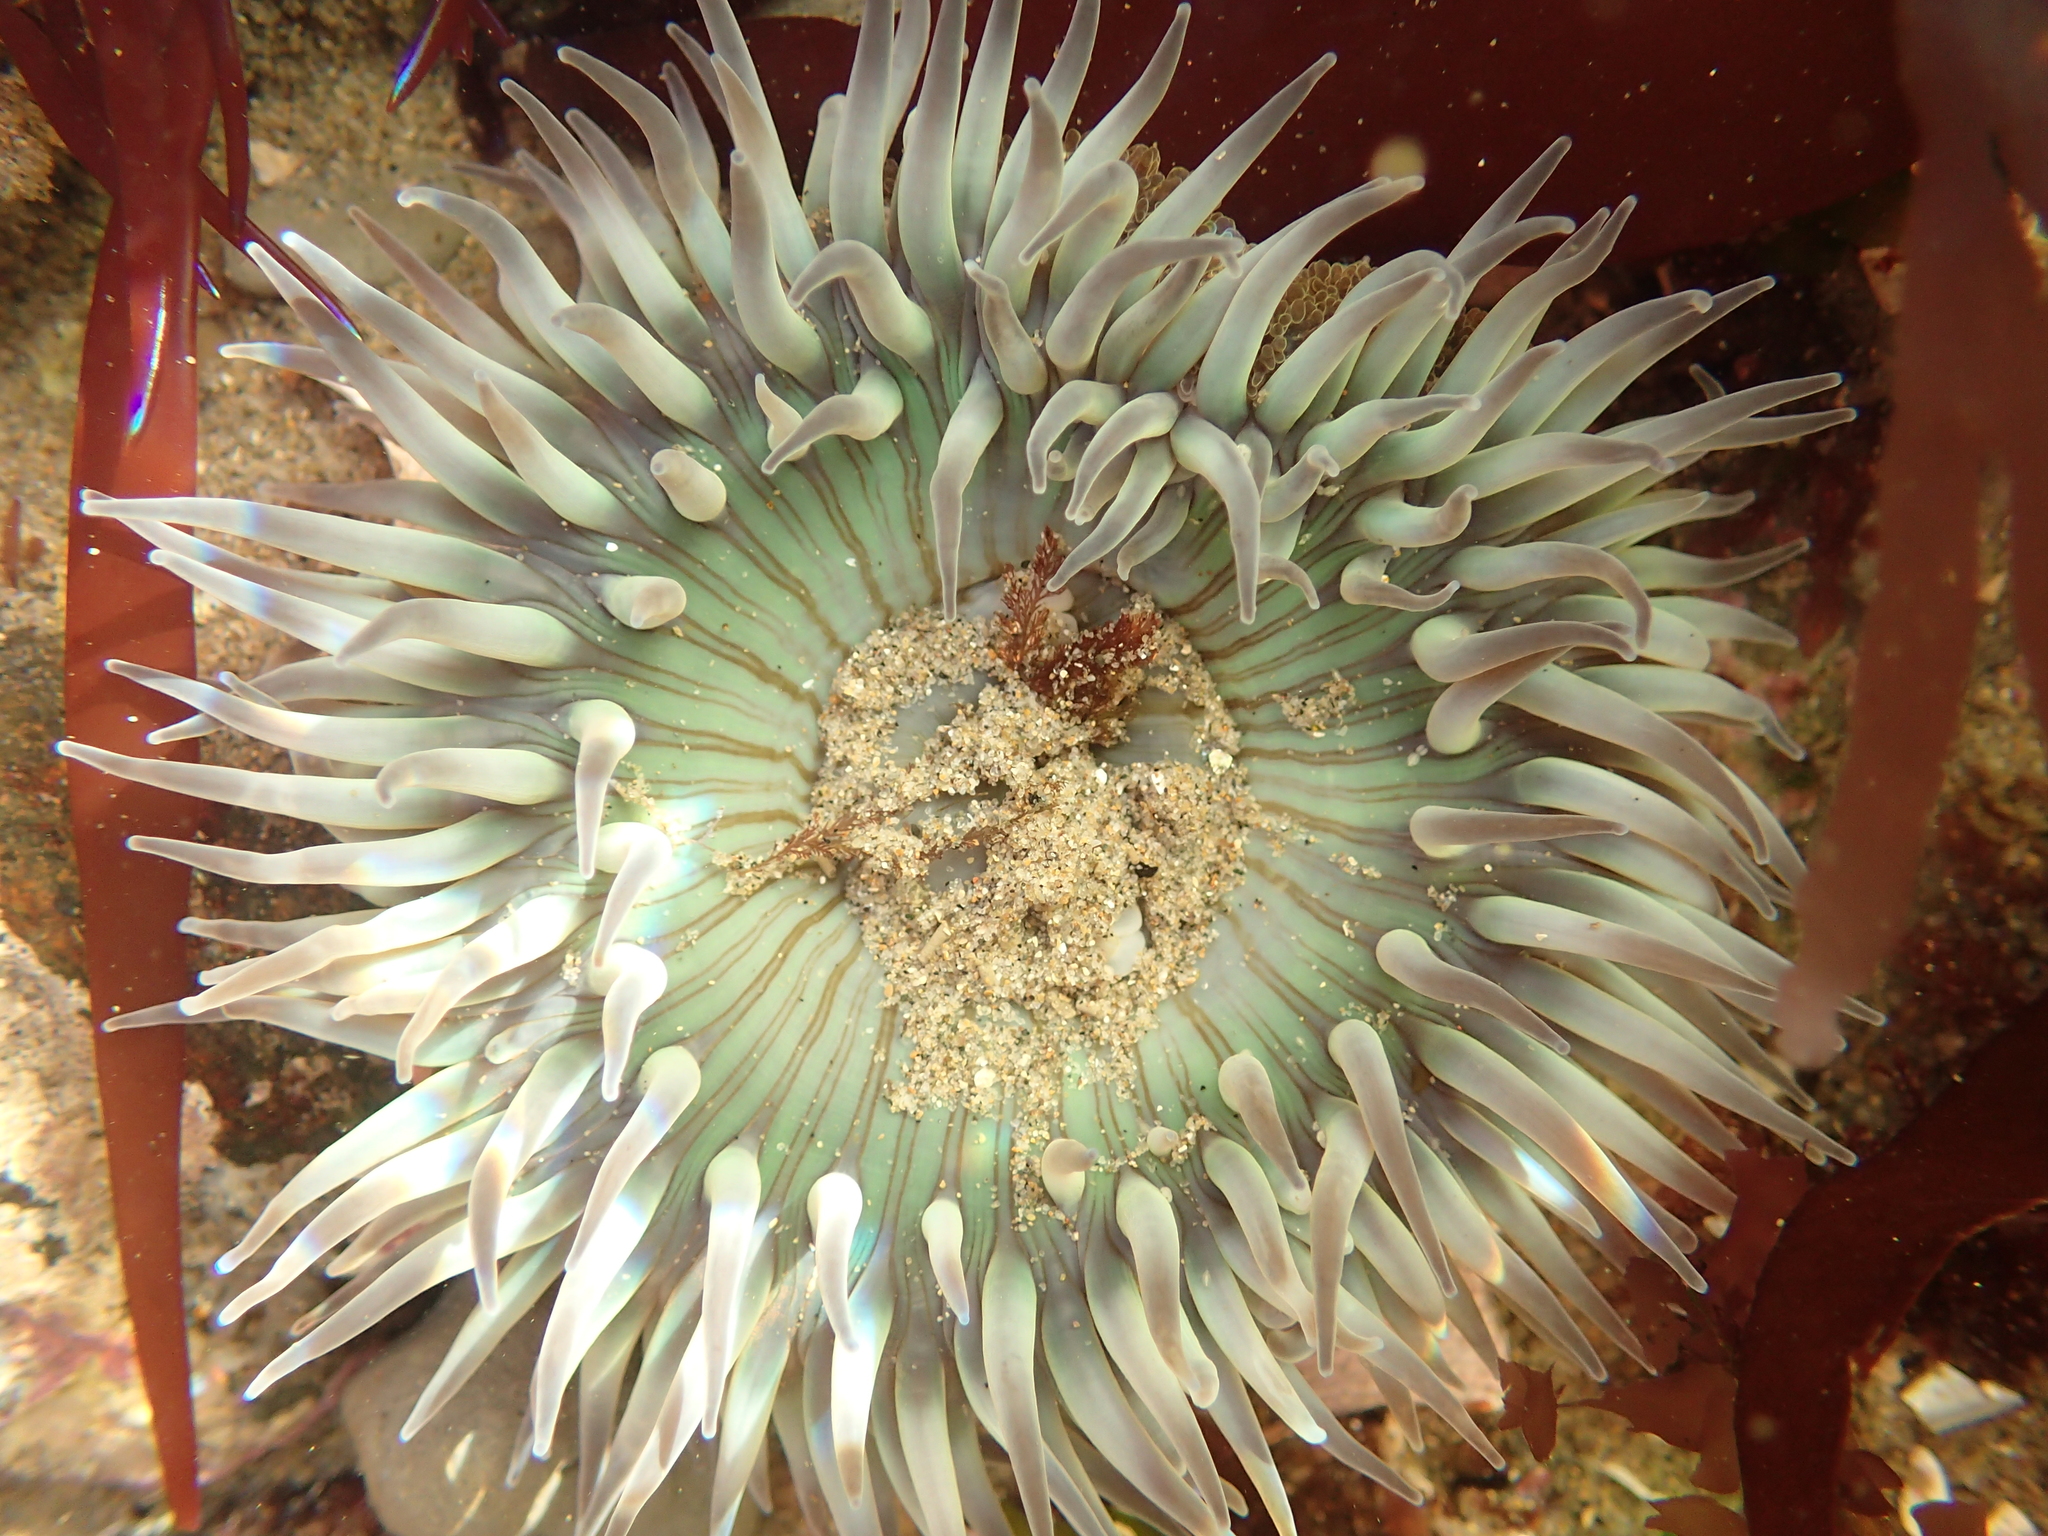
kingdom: Animalia
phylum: Cnidaria
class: Anthozoa
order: Actiniaria
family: Actiniidae
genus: Anthopleura
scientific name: Anthopleura sola
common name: Sun anemone
